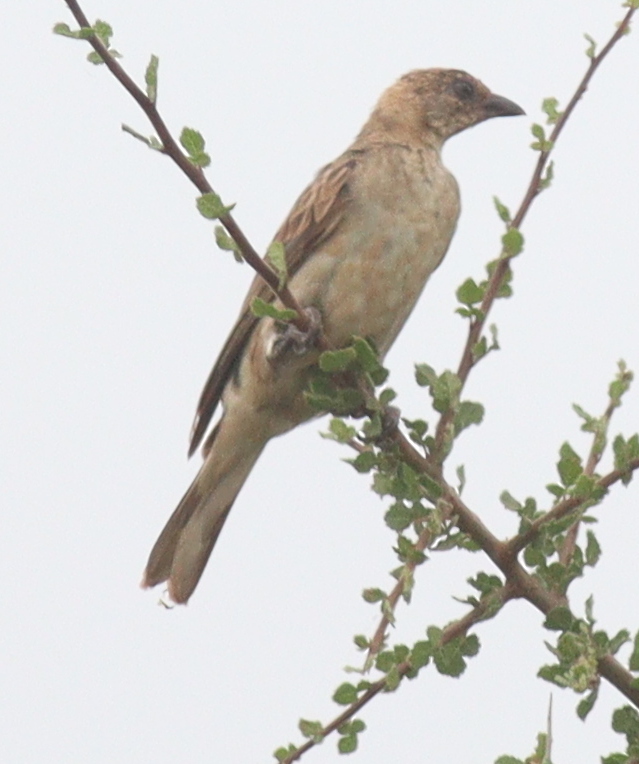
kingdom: Animalia
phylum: Chordata
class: Aves
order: Piciformes
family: Indicatoridae
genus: Indicator
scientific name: Indicator indicator
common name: Greater honeyguide
